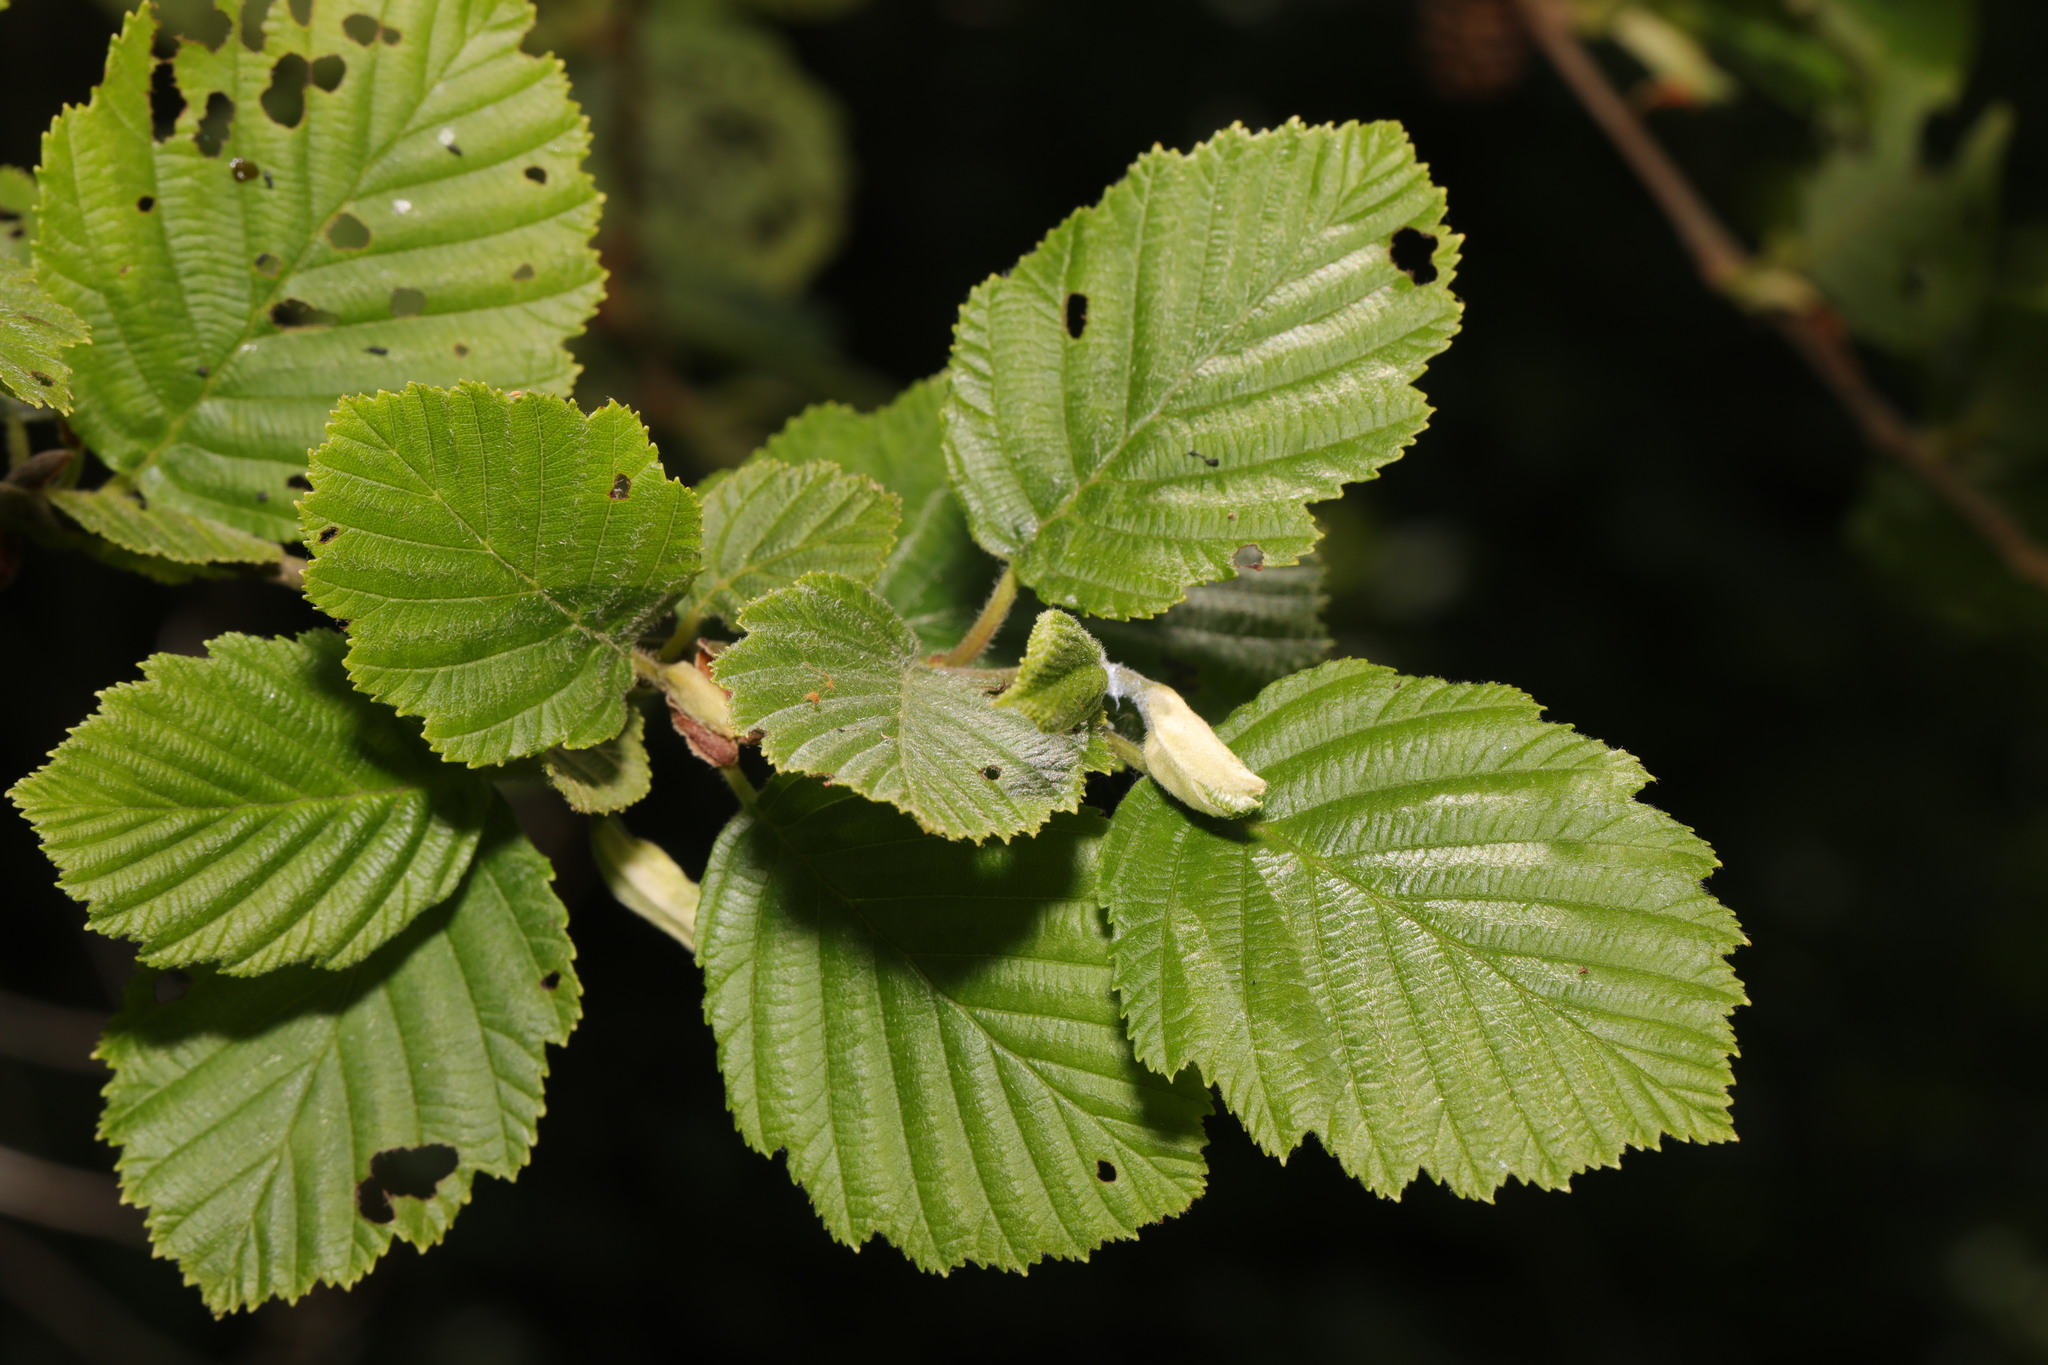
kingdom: Plantae
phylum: Tracheophyta
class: Magnoliopsida
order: Fagales
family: Betulaceae
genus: Alnus
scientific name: Alnus incana
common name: Grey alder
